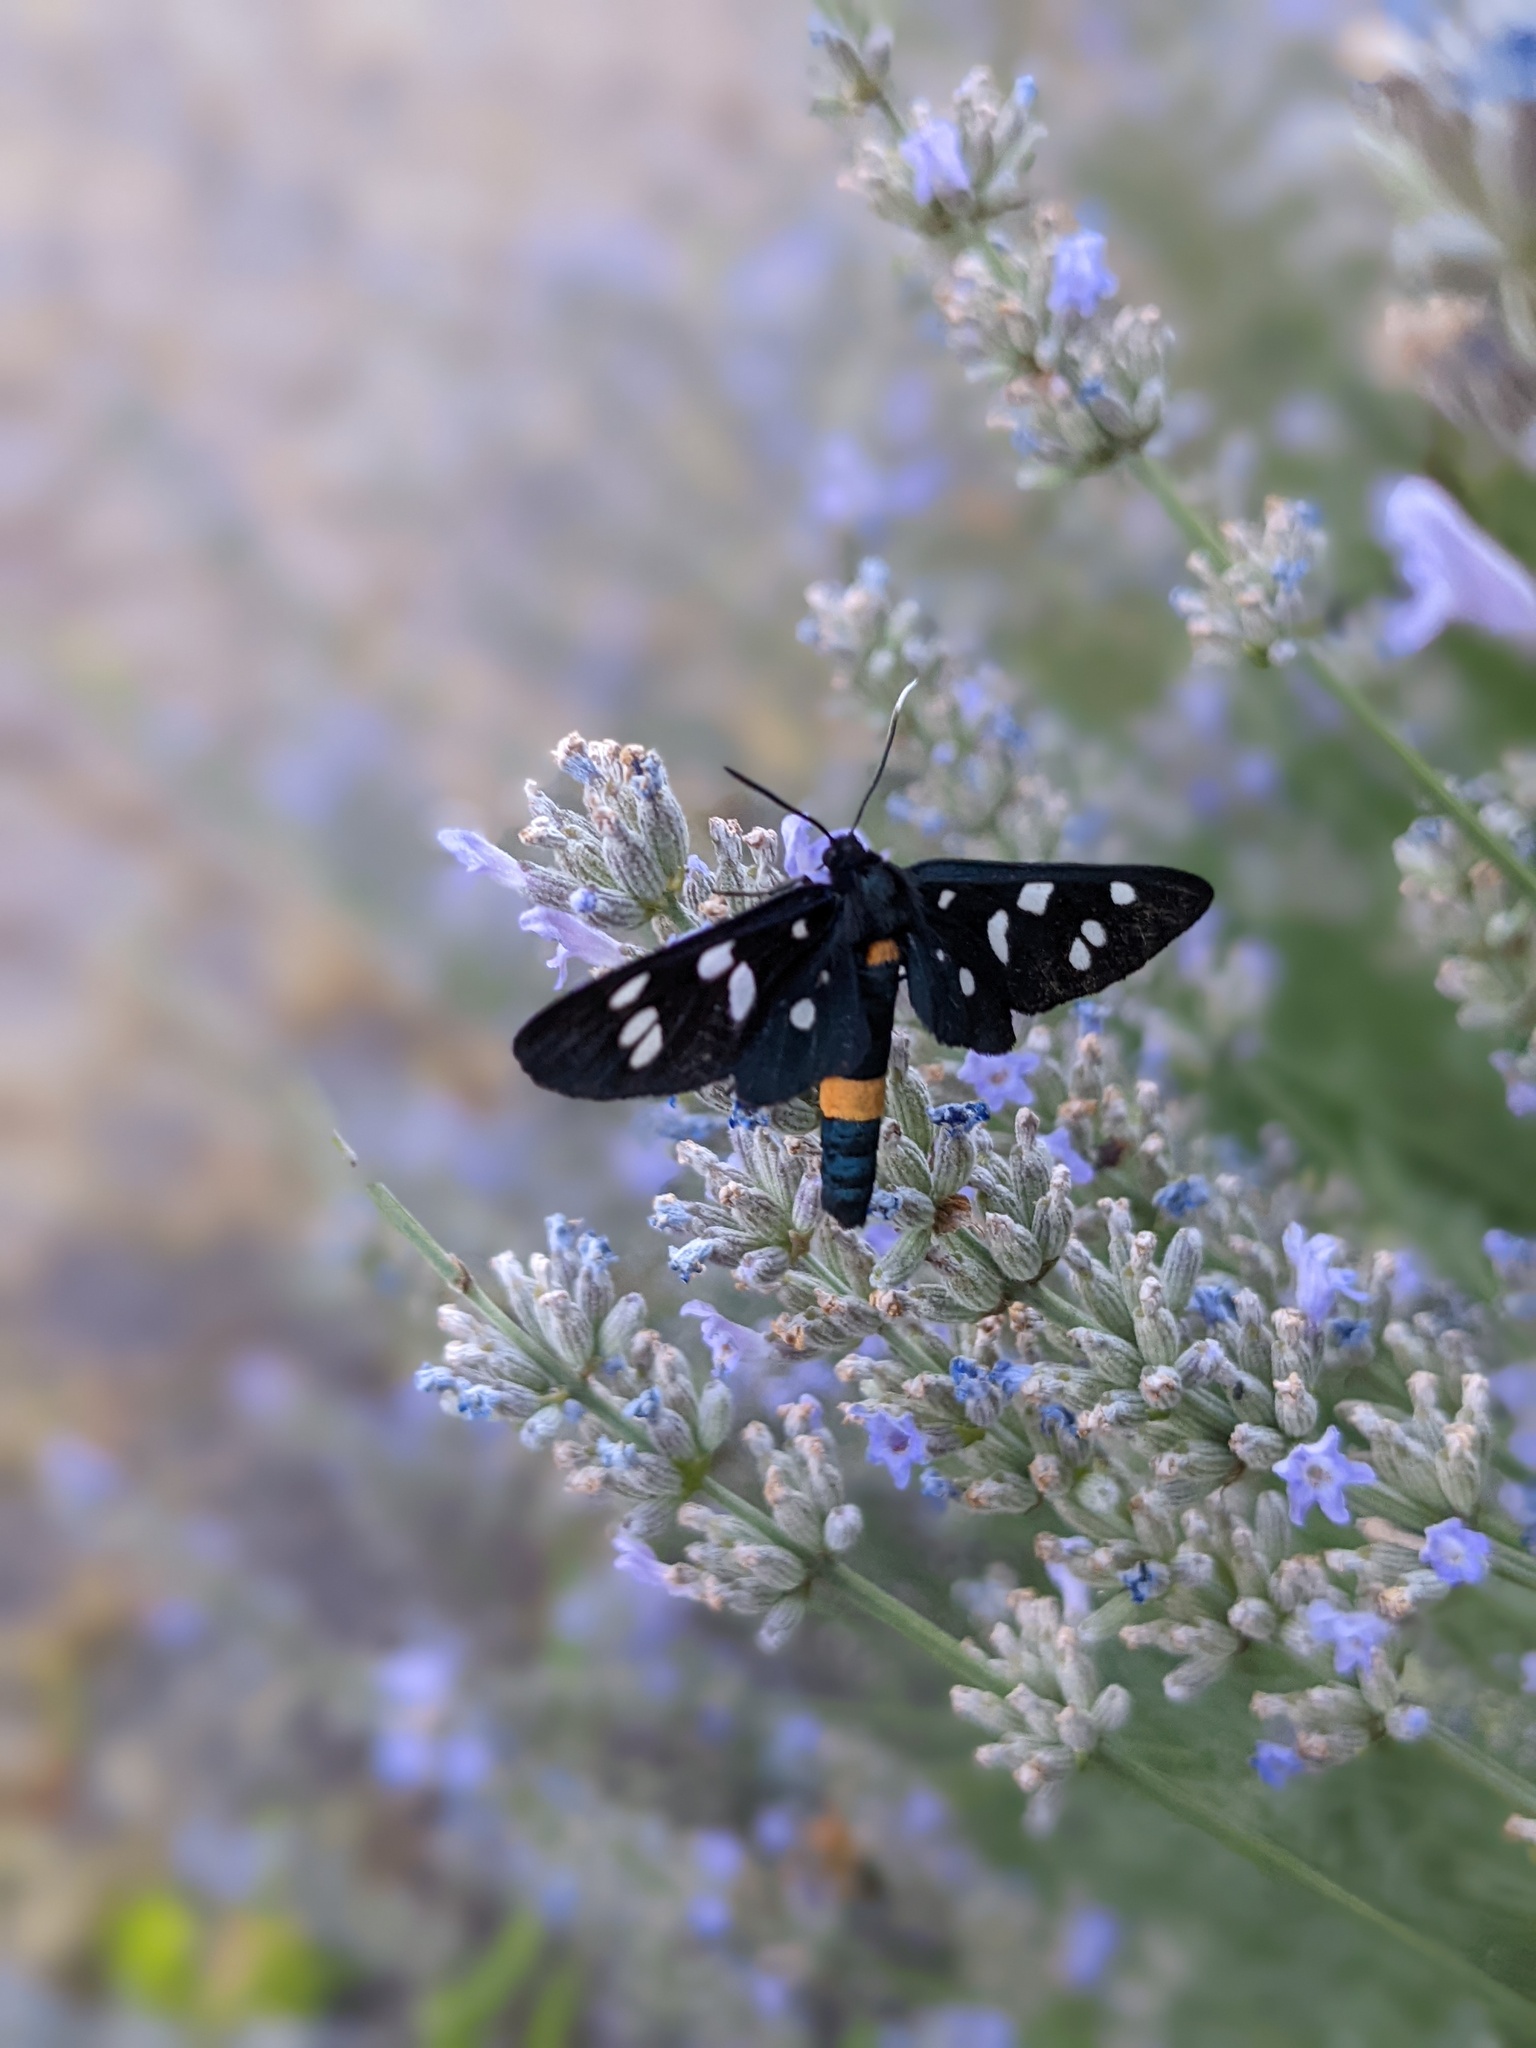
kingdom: Animalia
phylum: Arthropoda
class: Insecta
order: Lepidoptera
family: Erebidae
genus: Amata
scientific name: Amata phegea
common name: Nine-spotted
